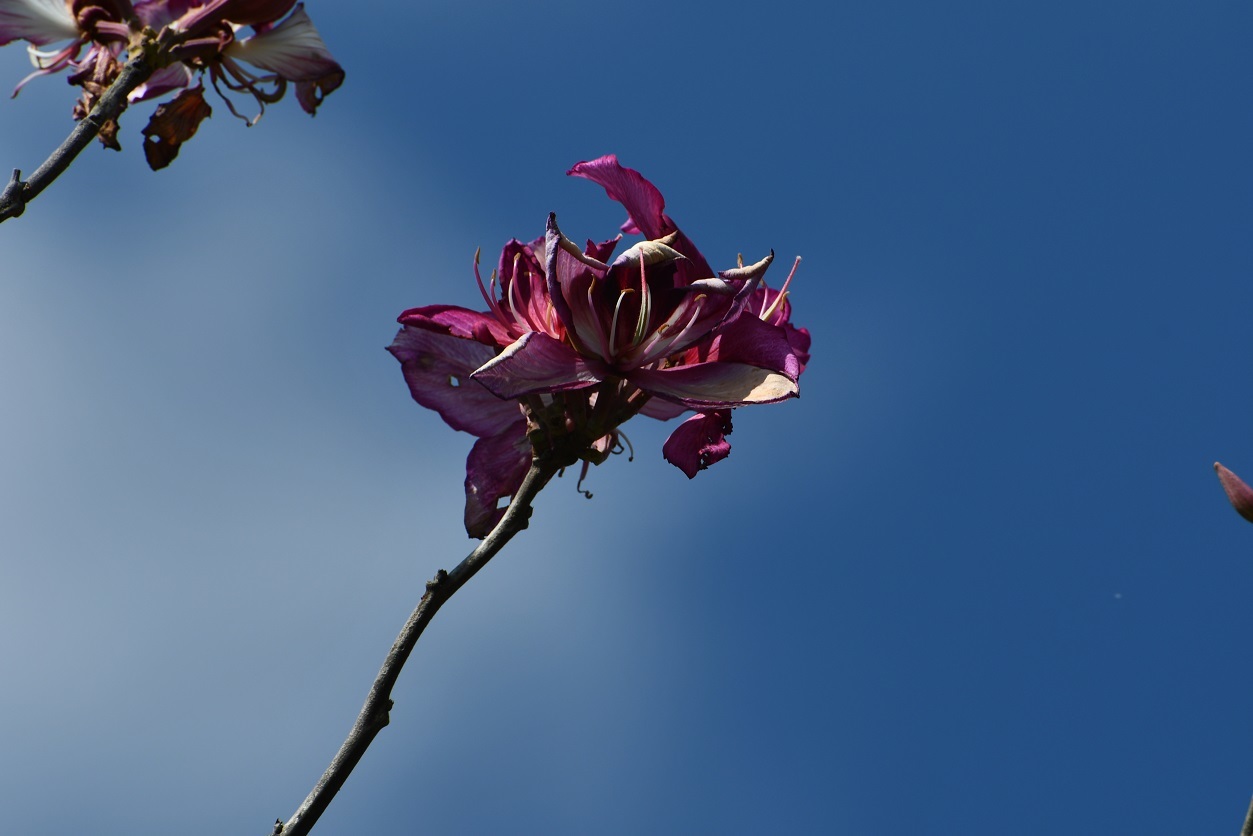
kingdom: Plantae
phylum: Tracheophyta
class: Magnoliopsida
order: Fabales
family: Fabaceae
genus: Bauhinia
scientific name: Bauhinia macranthera
